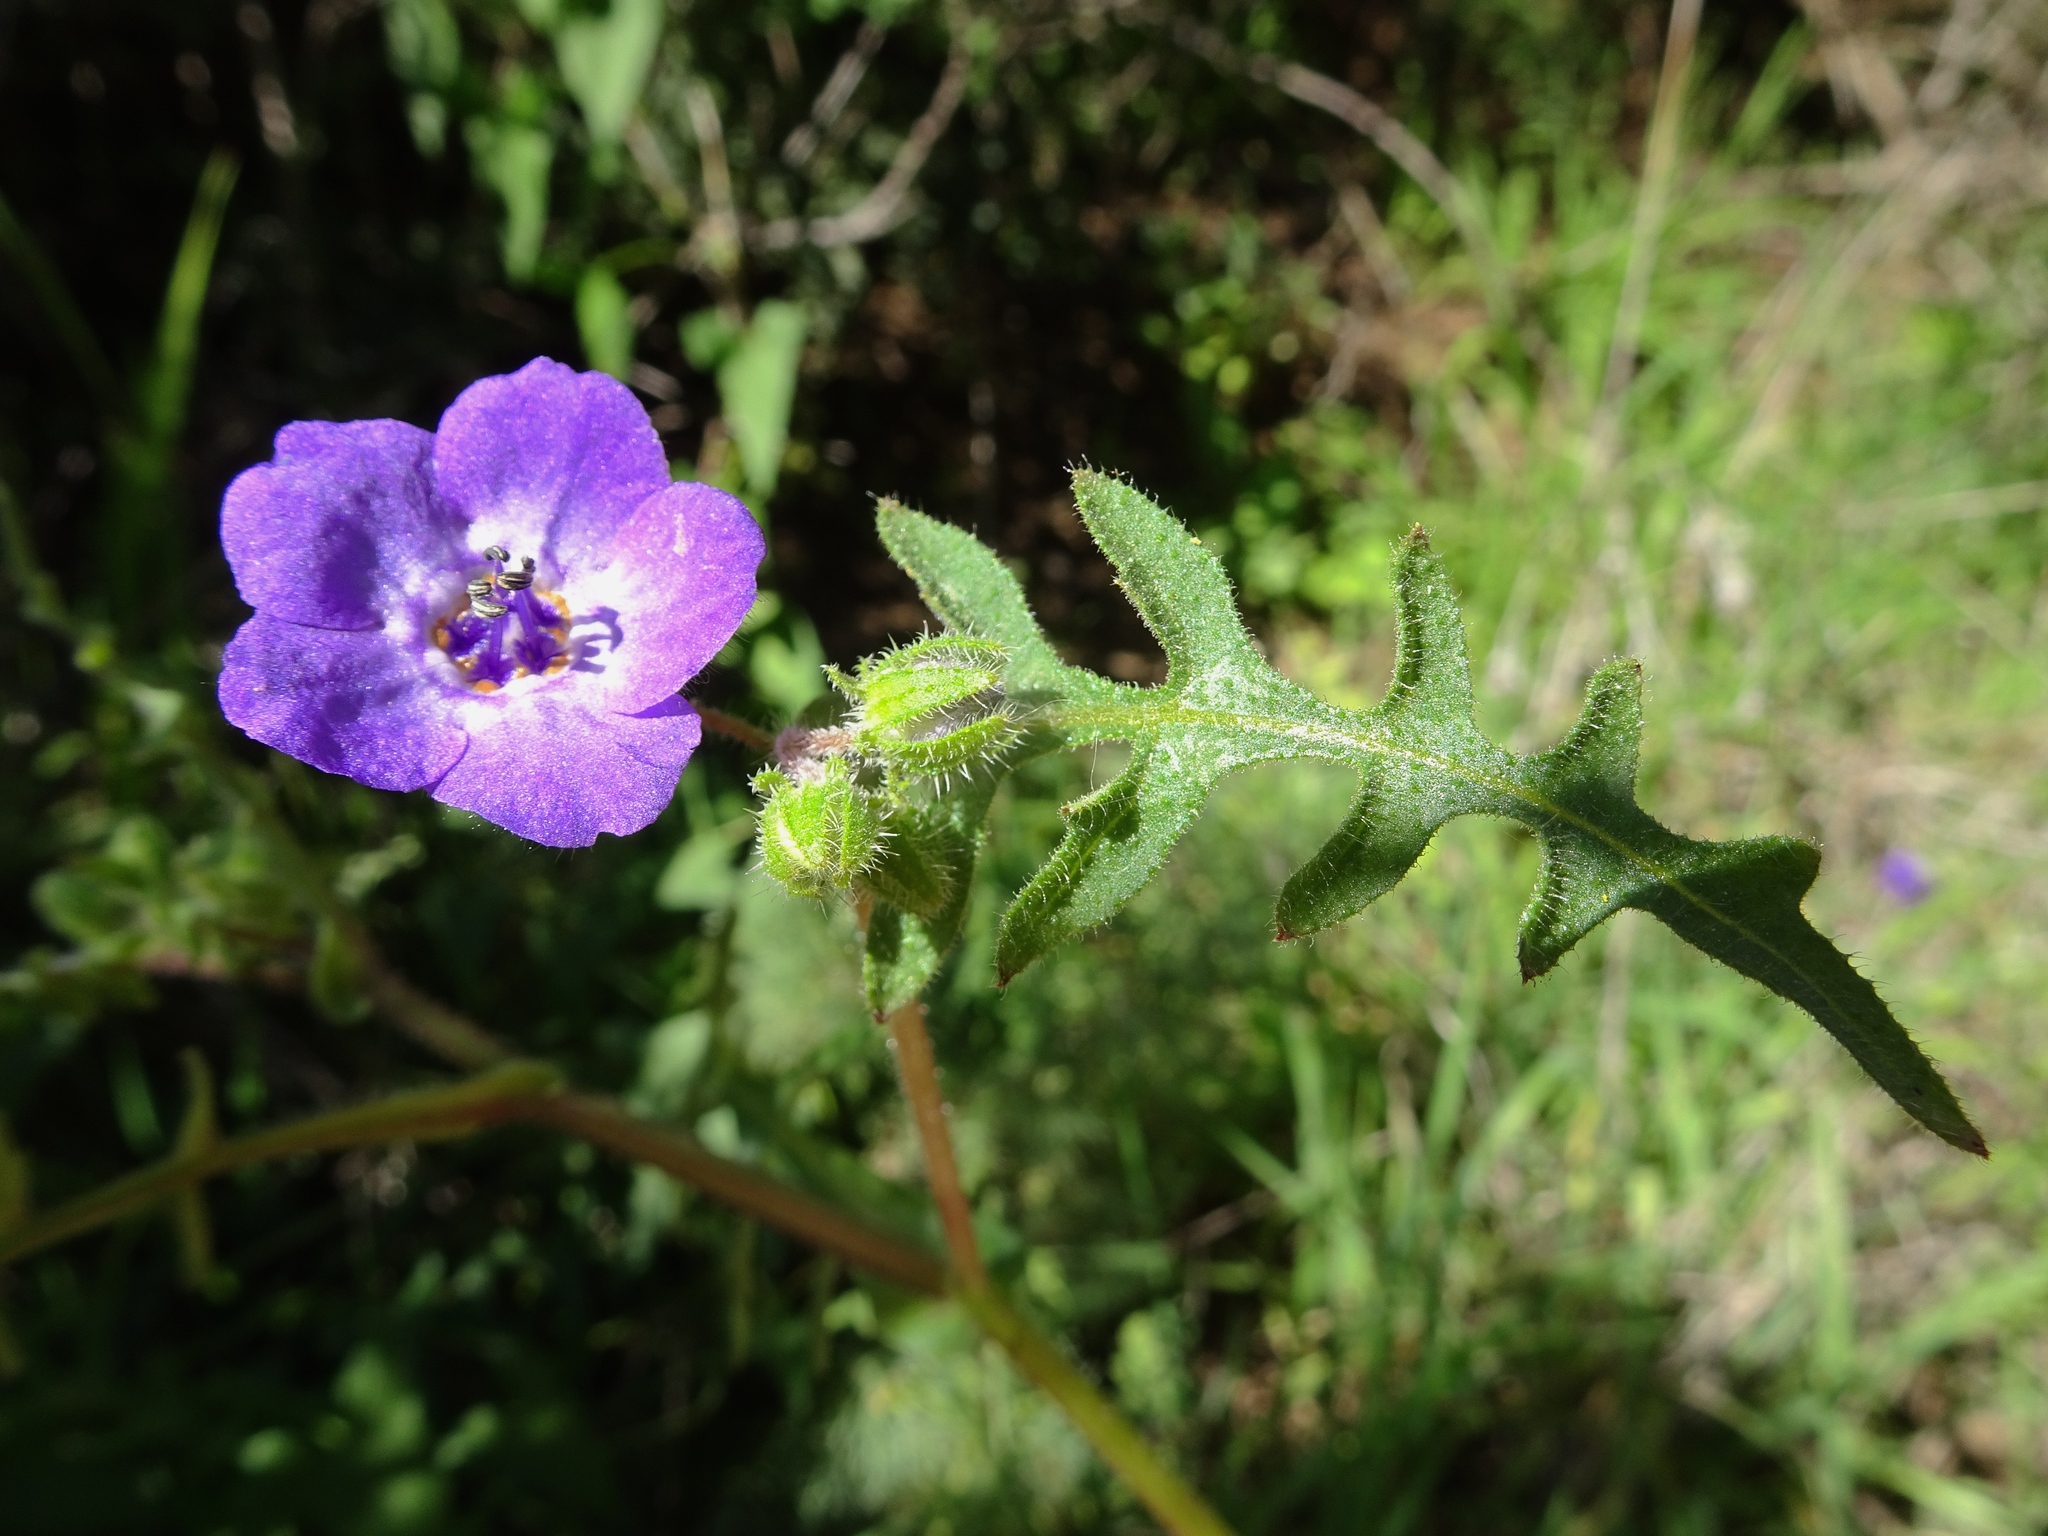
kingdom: Plantae
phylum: Tracheophyta
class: Magnoliopsida
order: Boraginales
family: Hydrophyllaceae
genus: Pholistoma
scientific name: Pholistoma auritum
